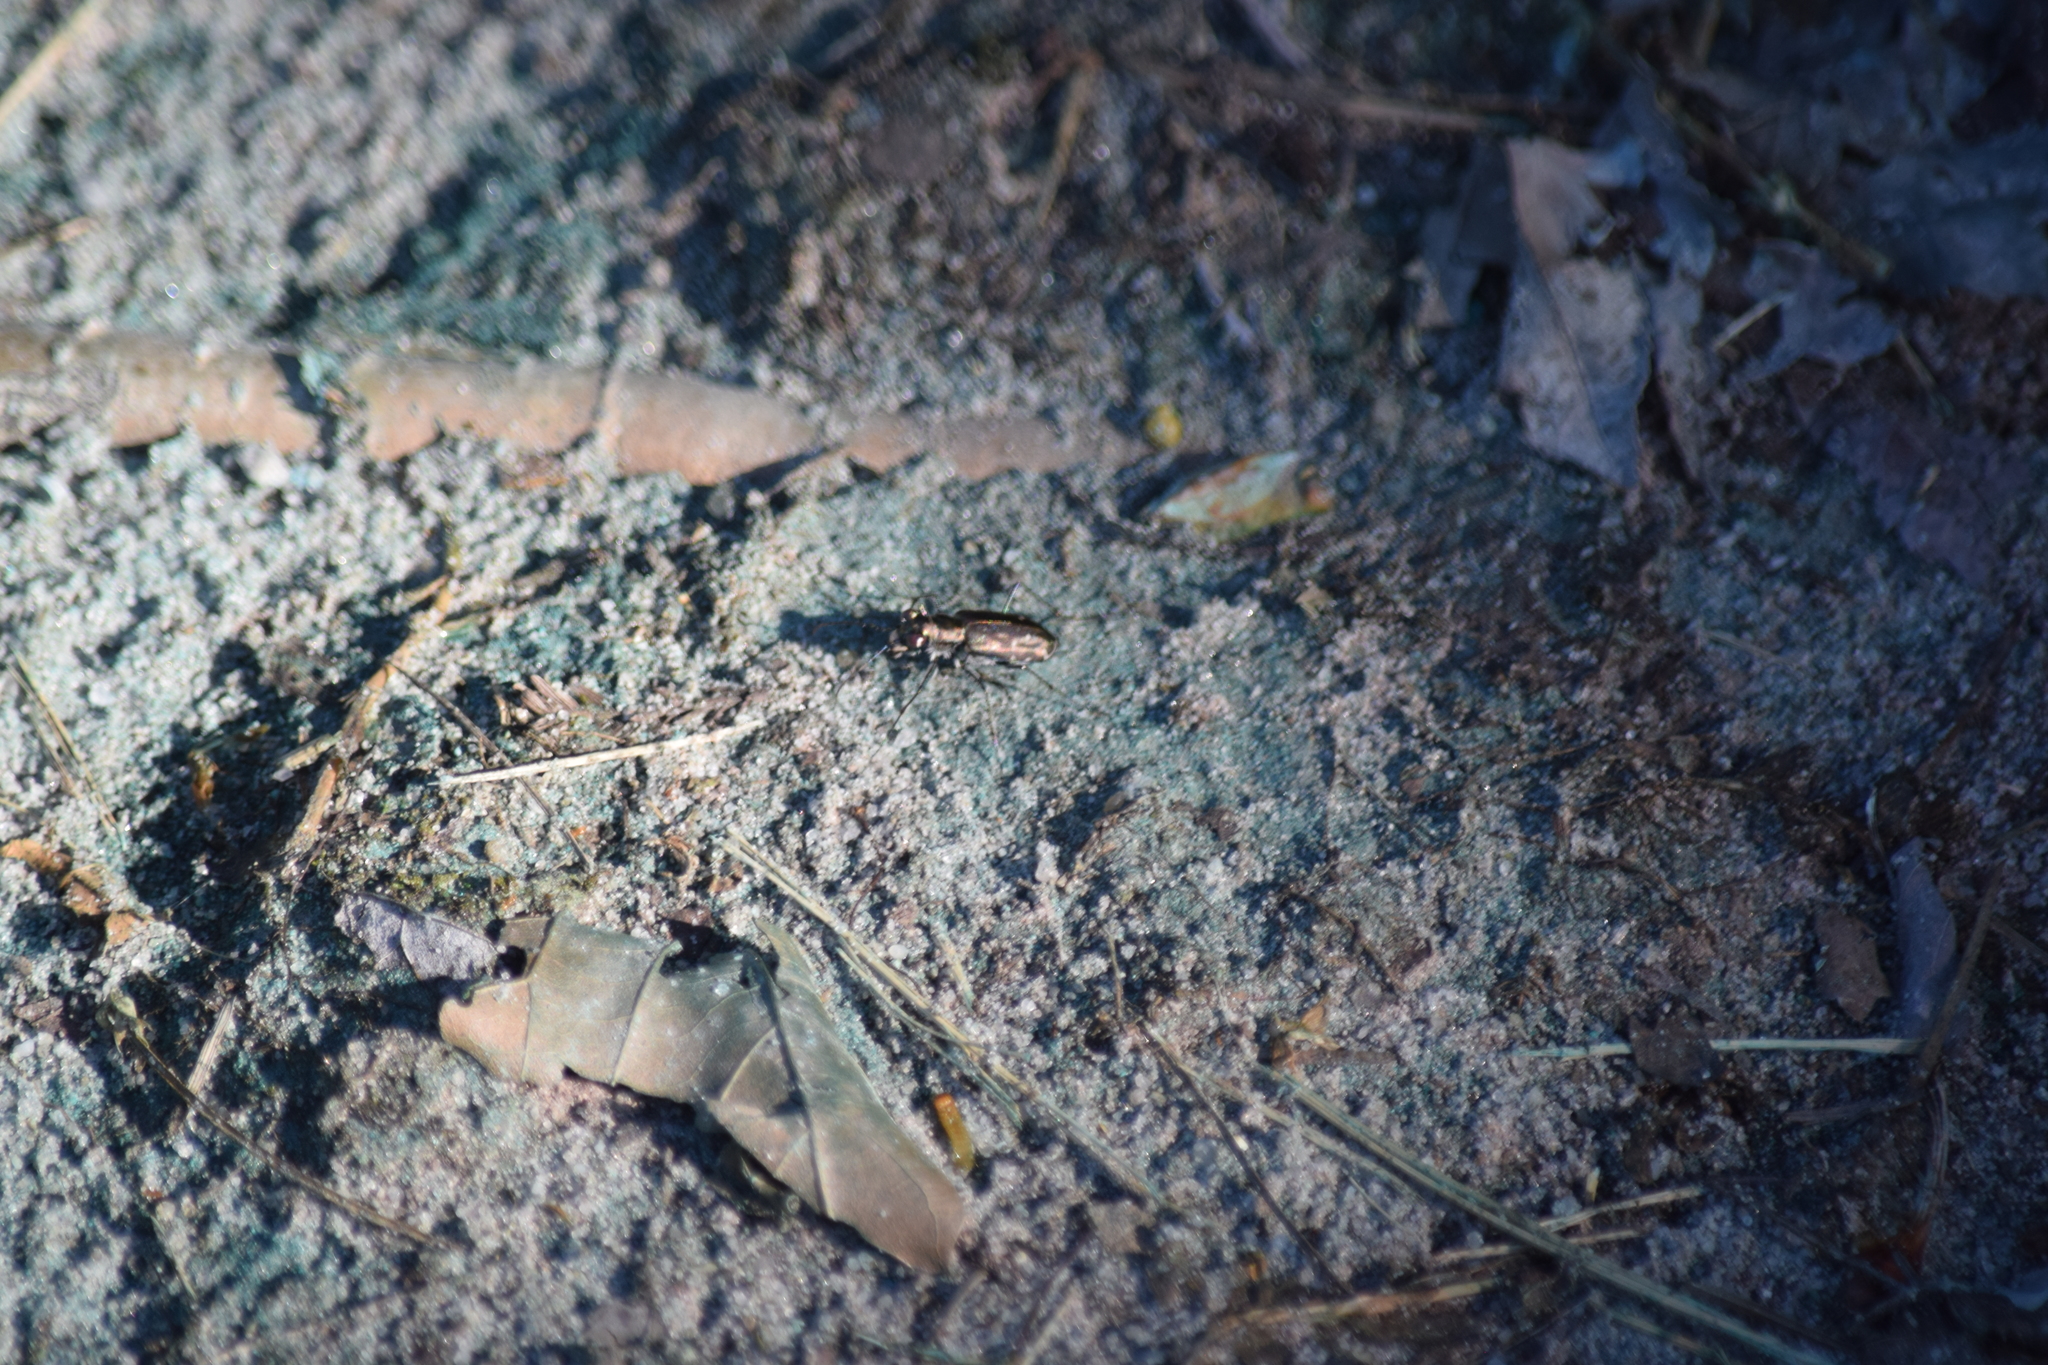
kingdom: Animalia
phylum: Arthropoda
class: Insecta
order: Coleoptera
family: Carabidae
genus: Cicindela
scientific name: Cicindela punctulata
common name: Punctured tiger beetle
